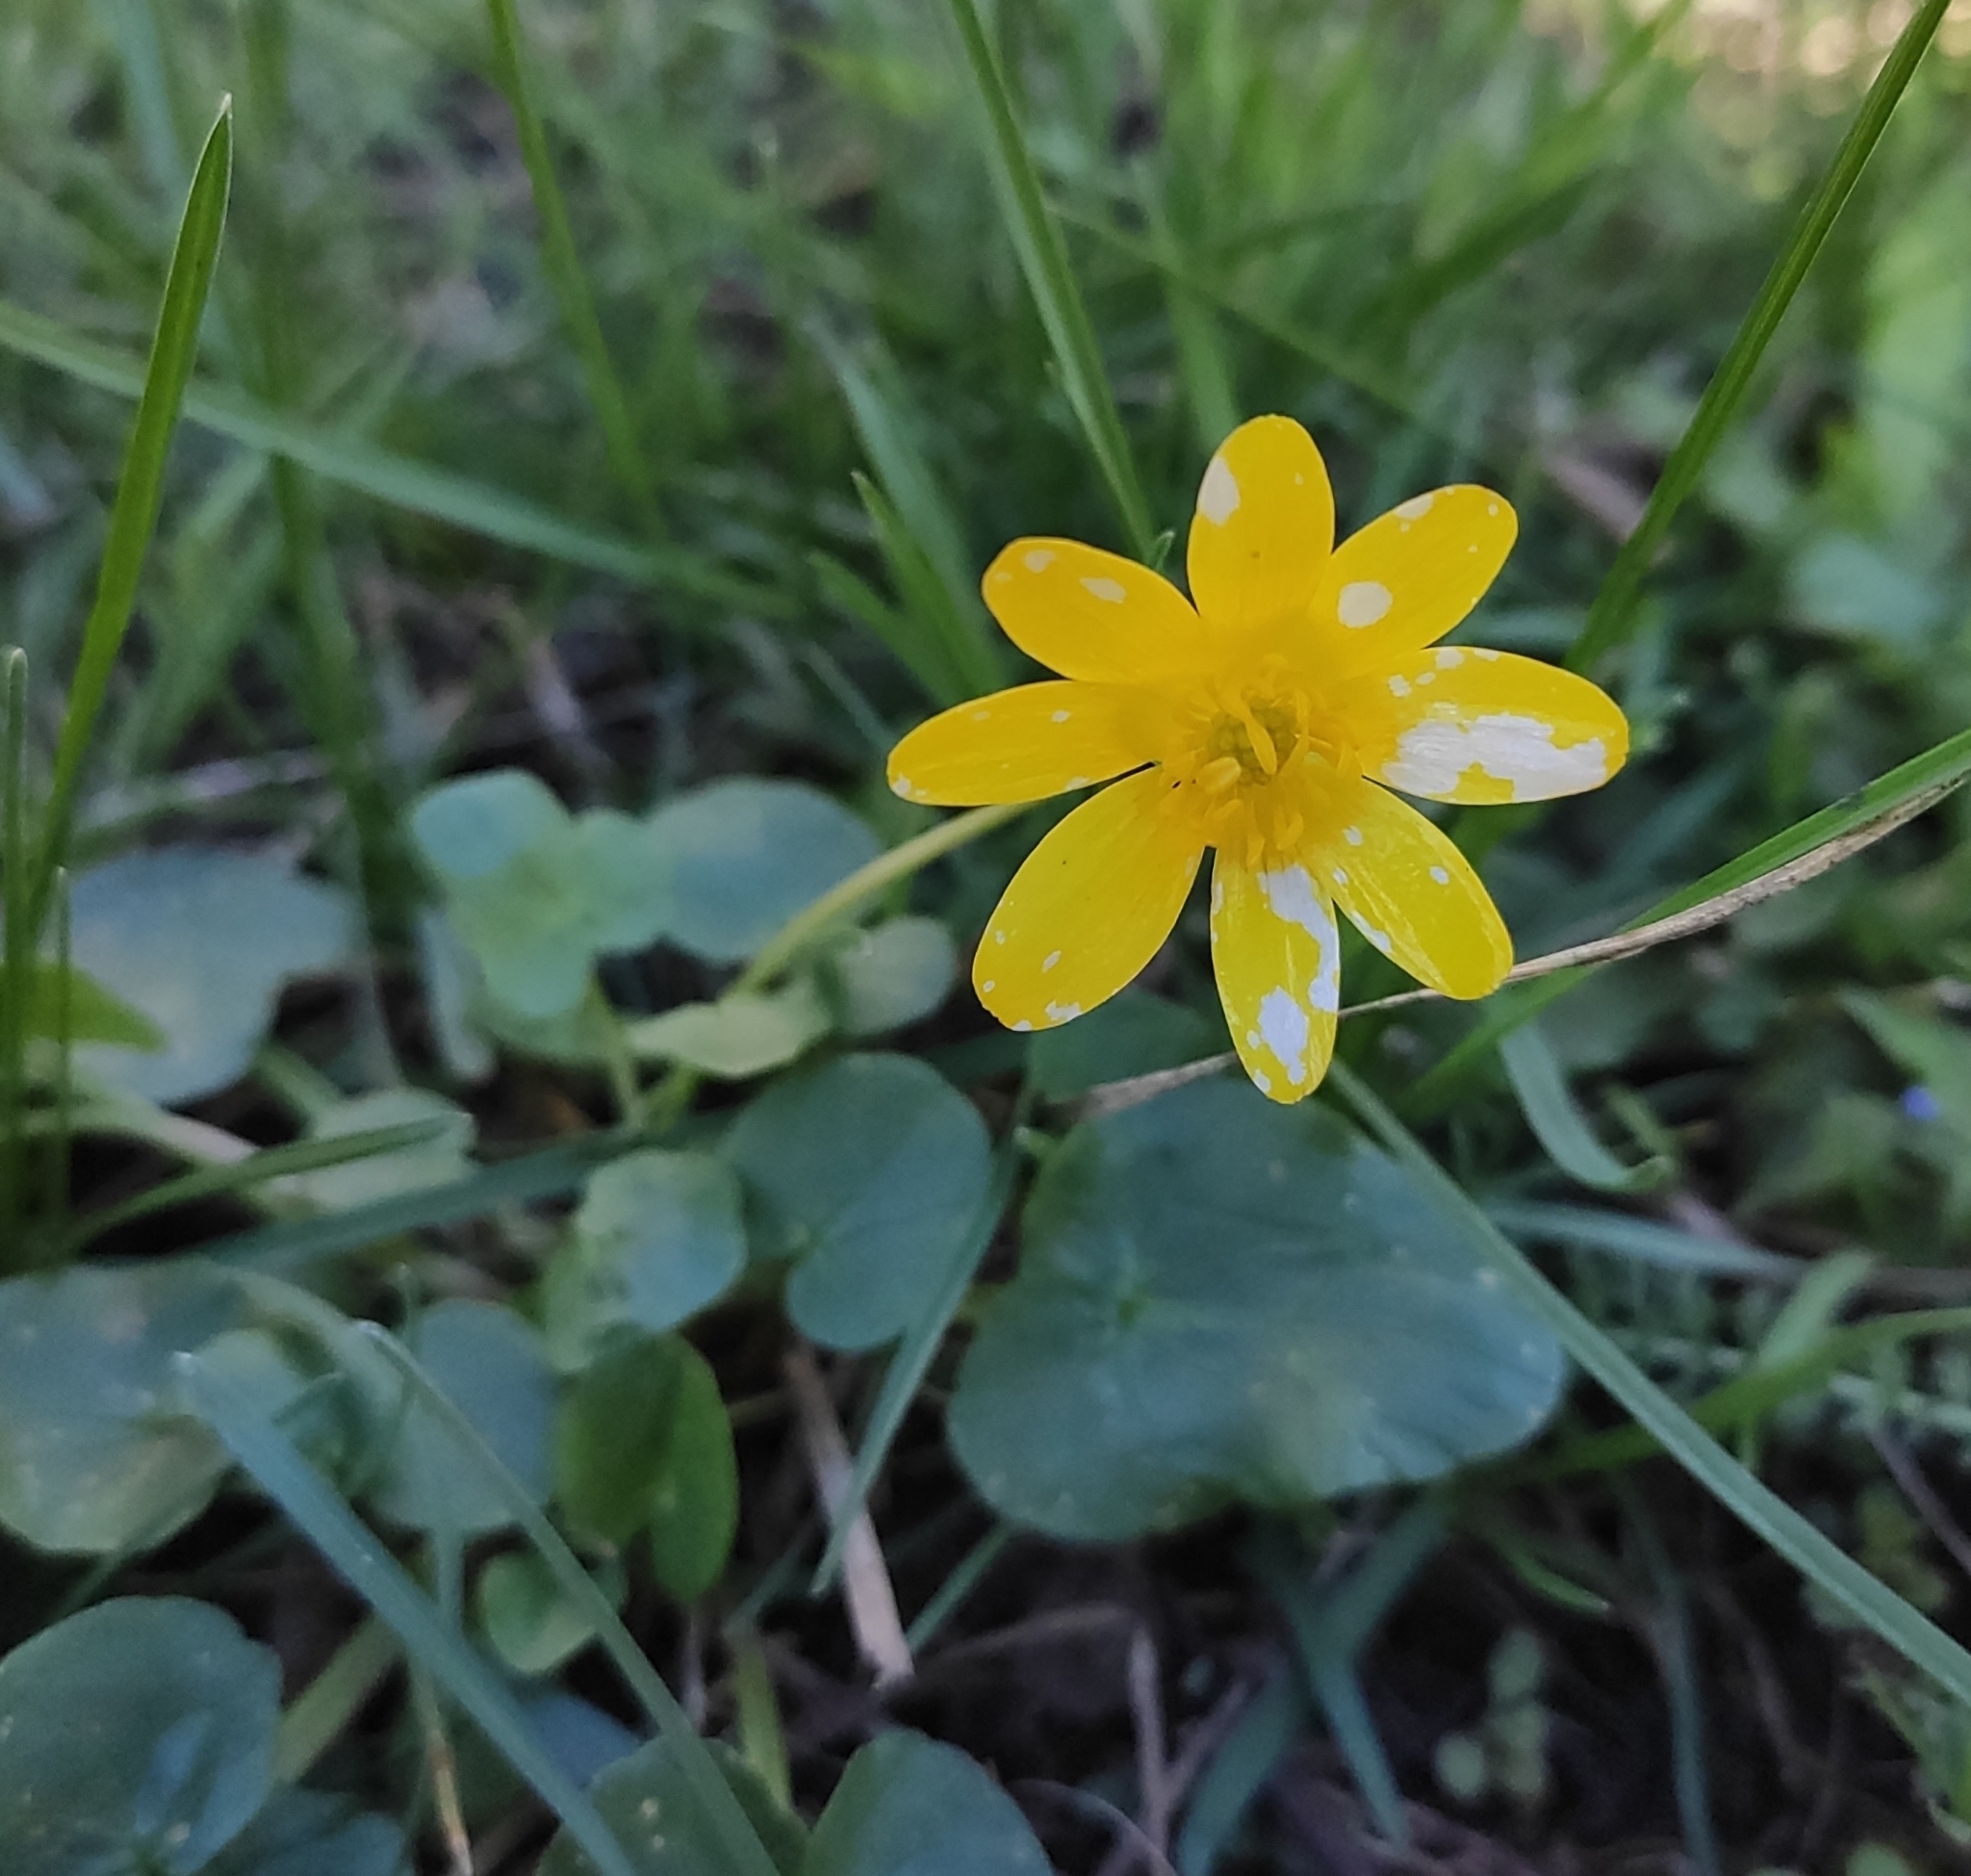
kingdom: Plantae
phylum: Tracheophyta
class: Magnoliopsida
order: Ranunculales
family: Ranunculaceae
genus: Ficaria
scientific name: Ficaria verna
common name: Lesser celandine
